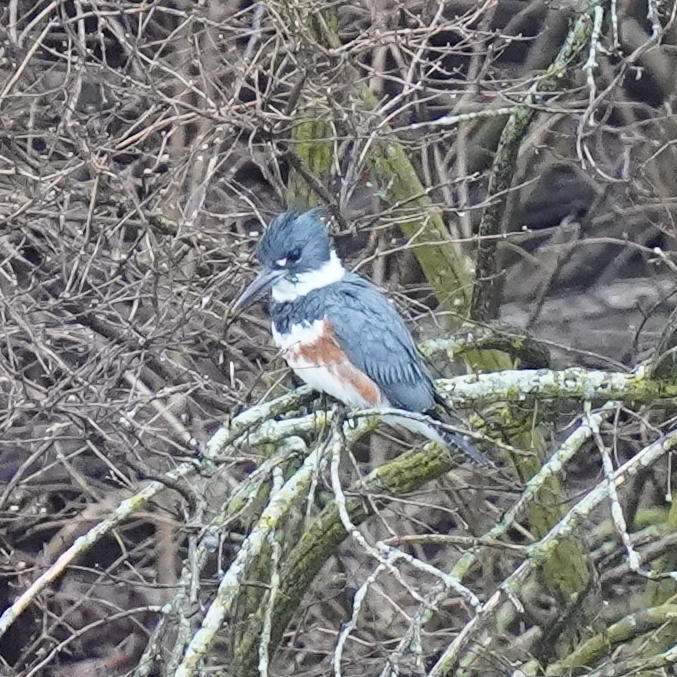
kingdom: Animalia
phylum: Chordata
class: Aves
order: Coraciiformes
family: Alcedinidae
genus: Megaceryle
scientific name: Megaceryle alcyon
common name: Belted kingfisher
